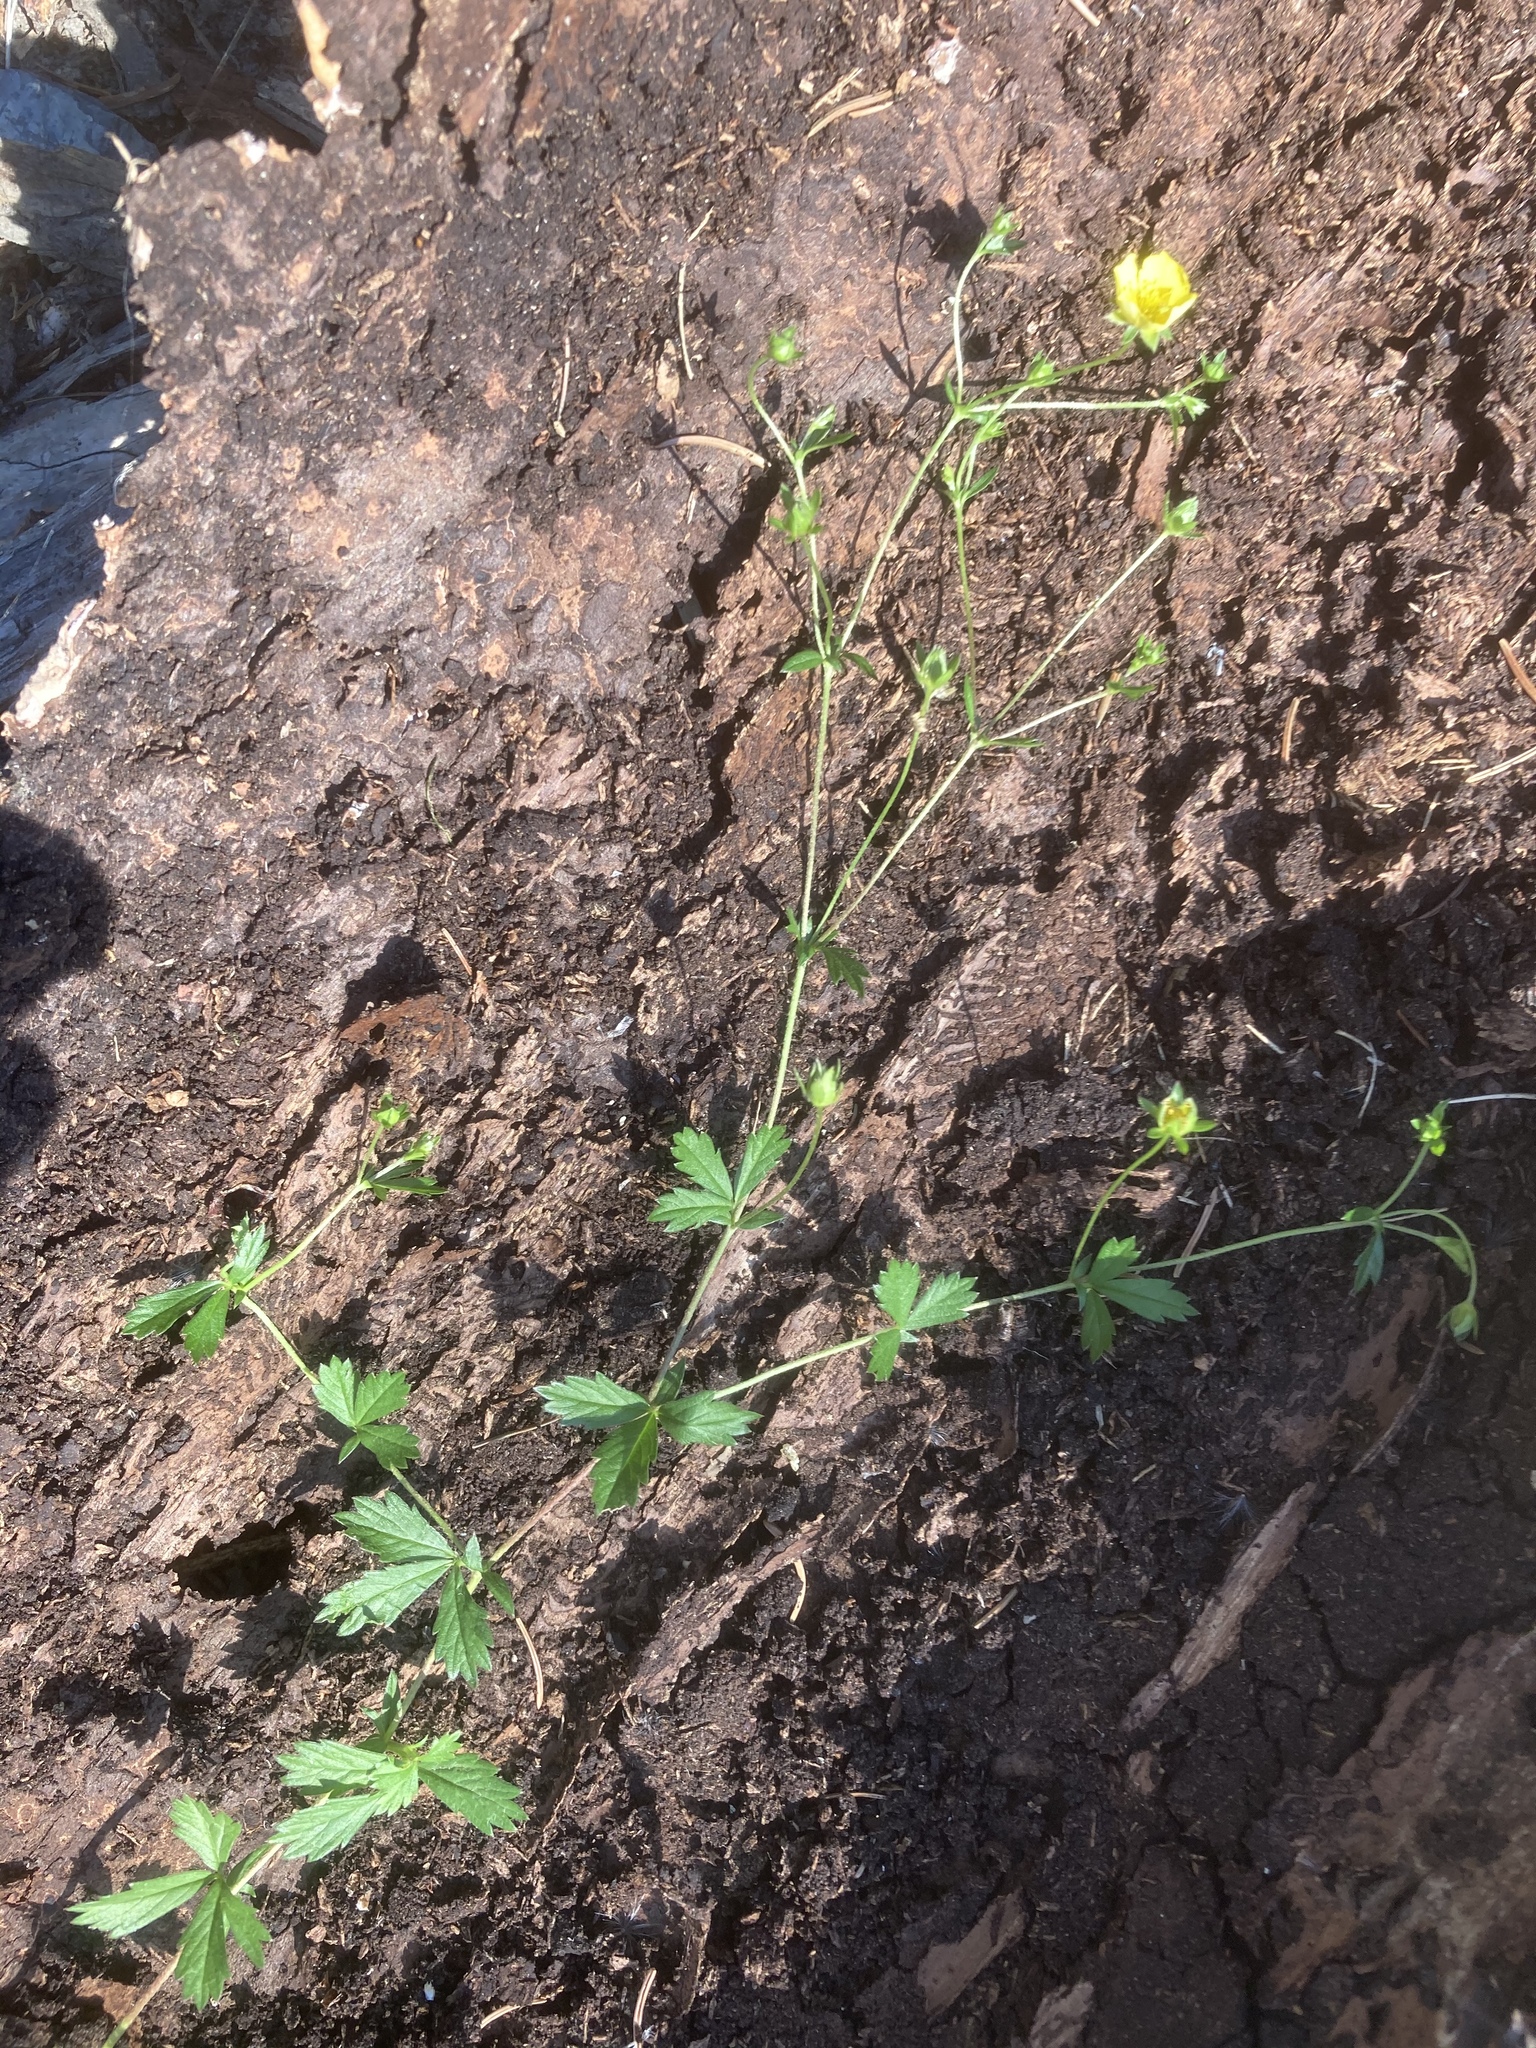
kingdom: Plantae
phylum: Tracheophyta
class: Magnoliopsida
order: Rosales
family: Rosaceae
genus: Potentilla
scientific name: Potentilla erecta
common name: Tormentil
